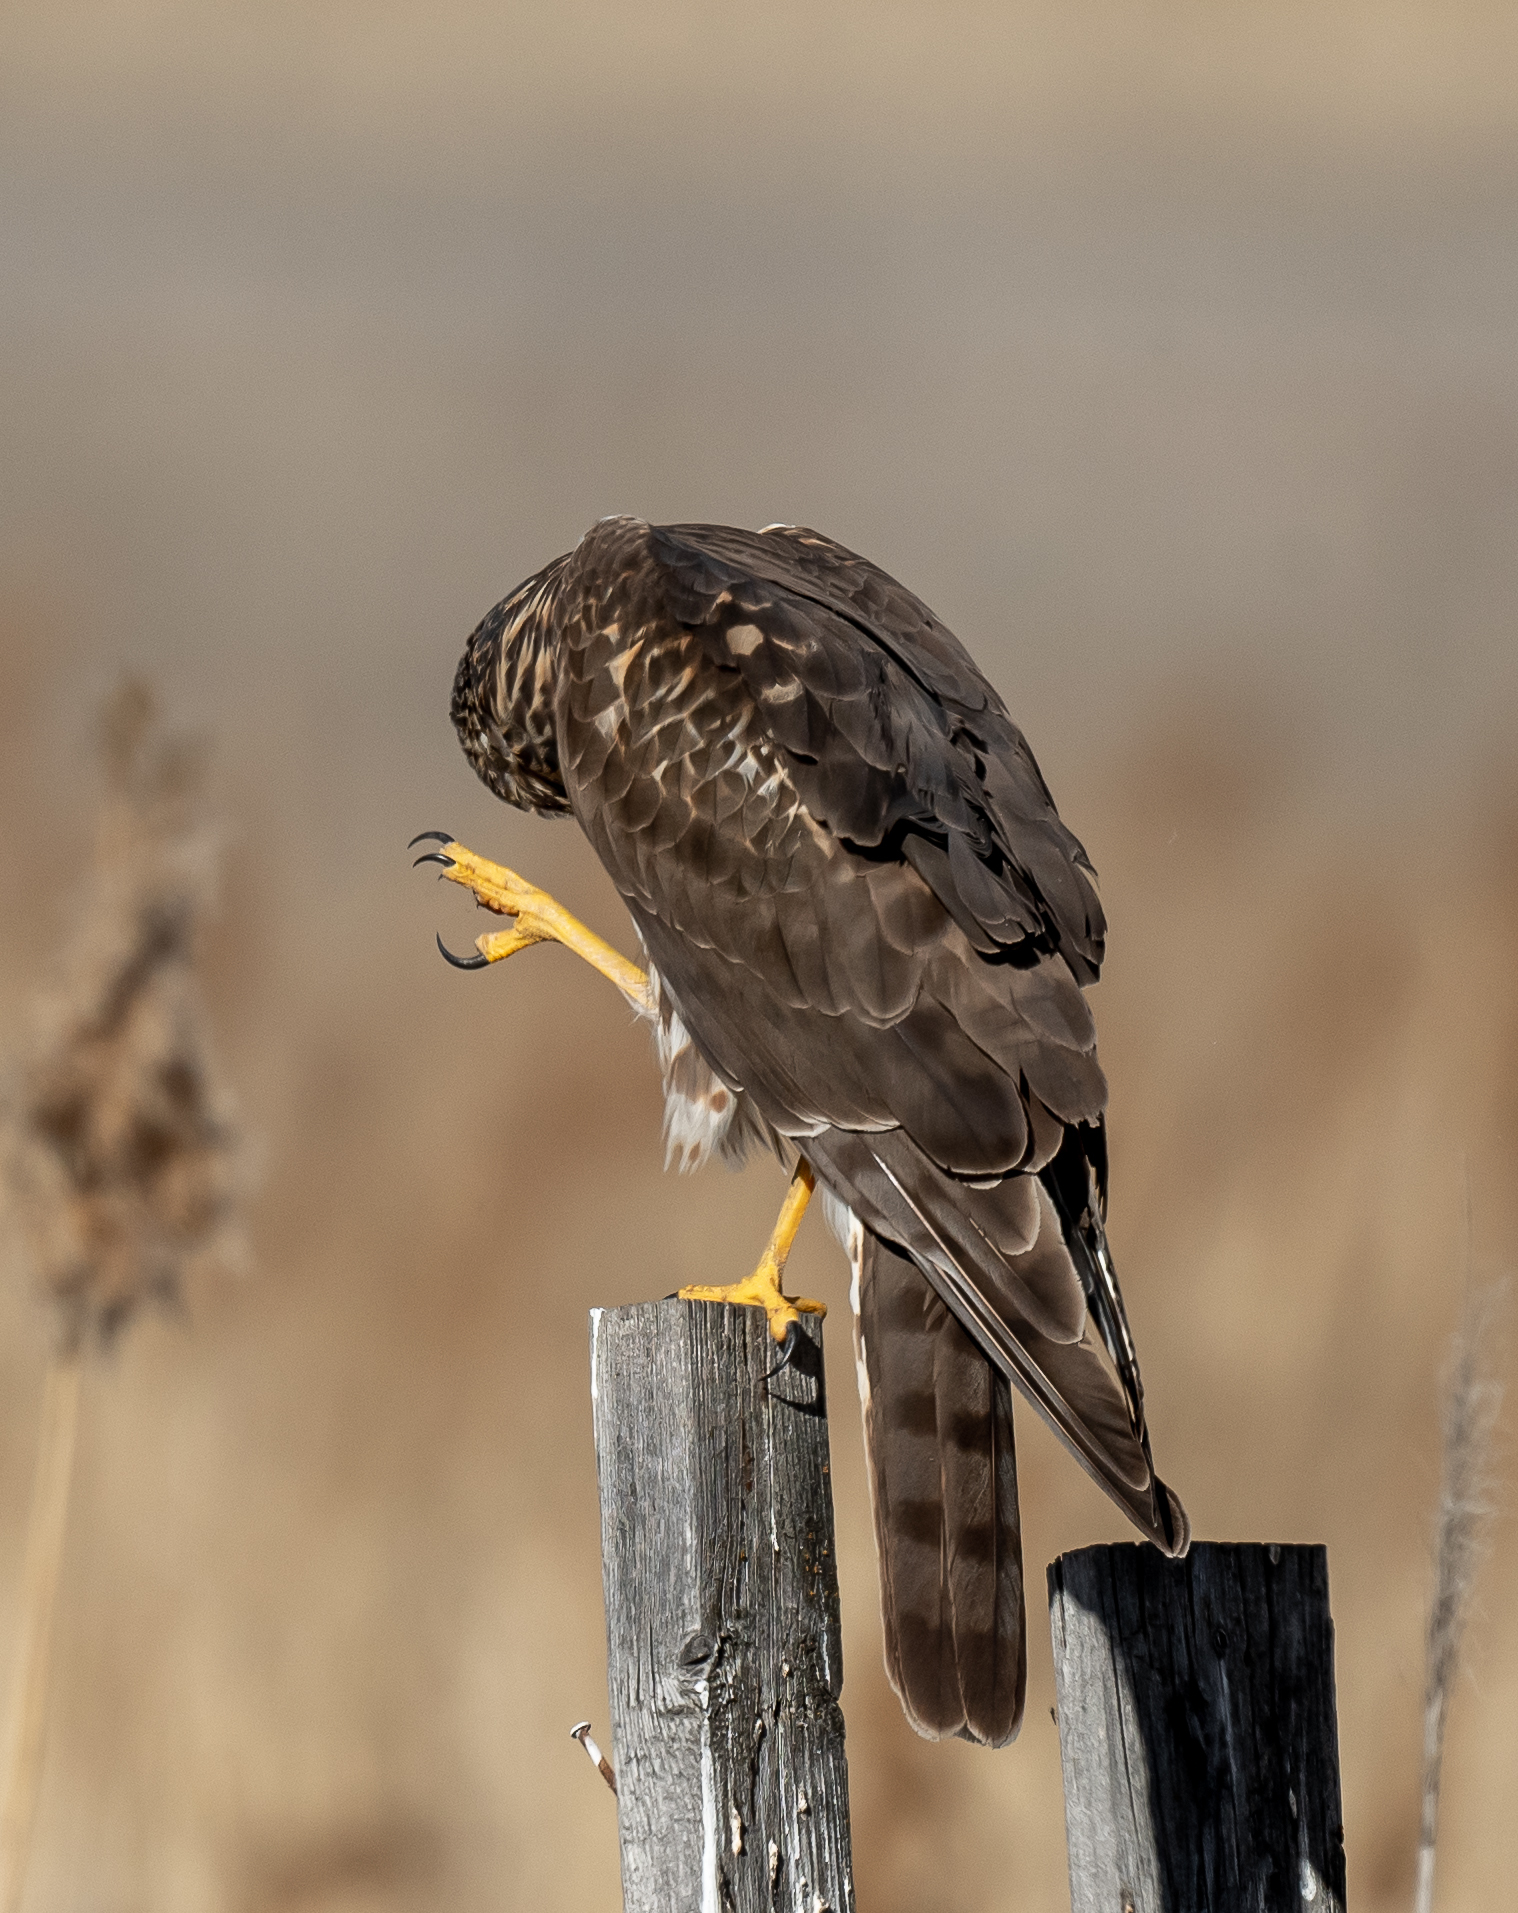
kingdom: Animalia
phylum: Chordata
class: Aves
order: Accipitriformes
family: Accipitridae
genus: Circus
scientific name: Circus cyaneus
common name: Hen harrier
